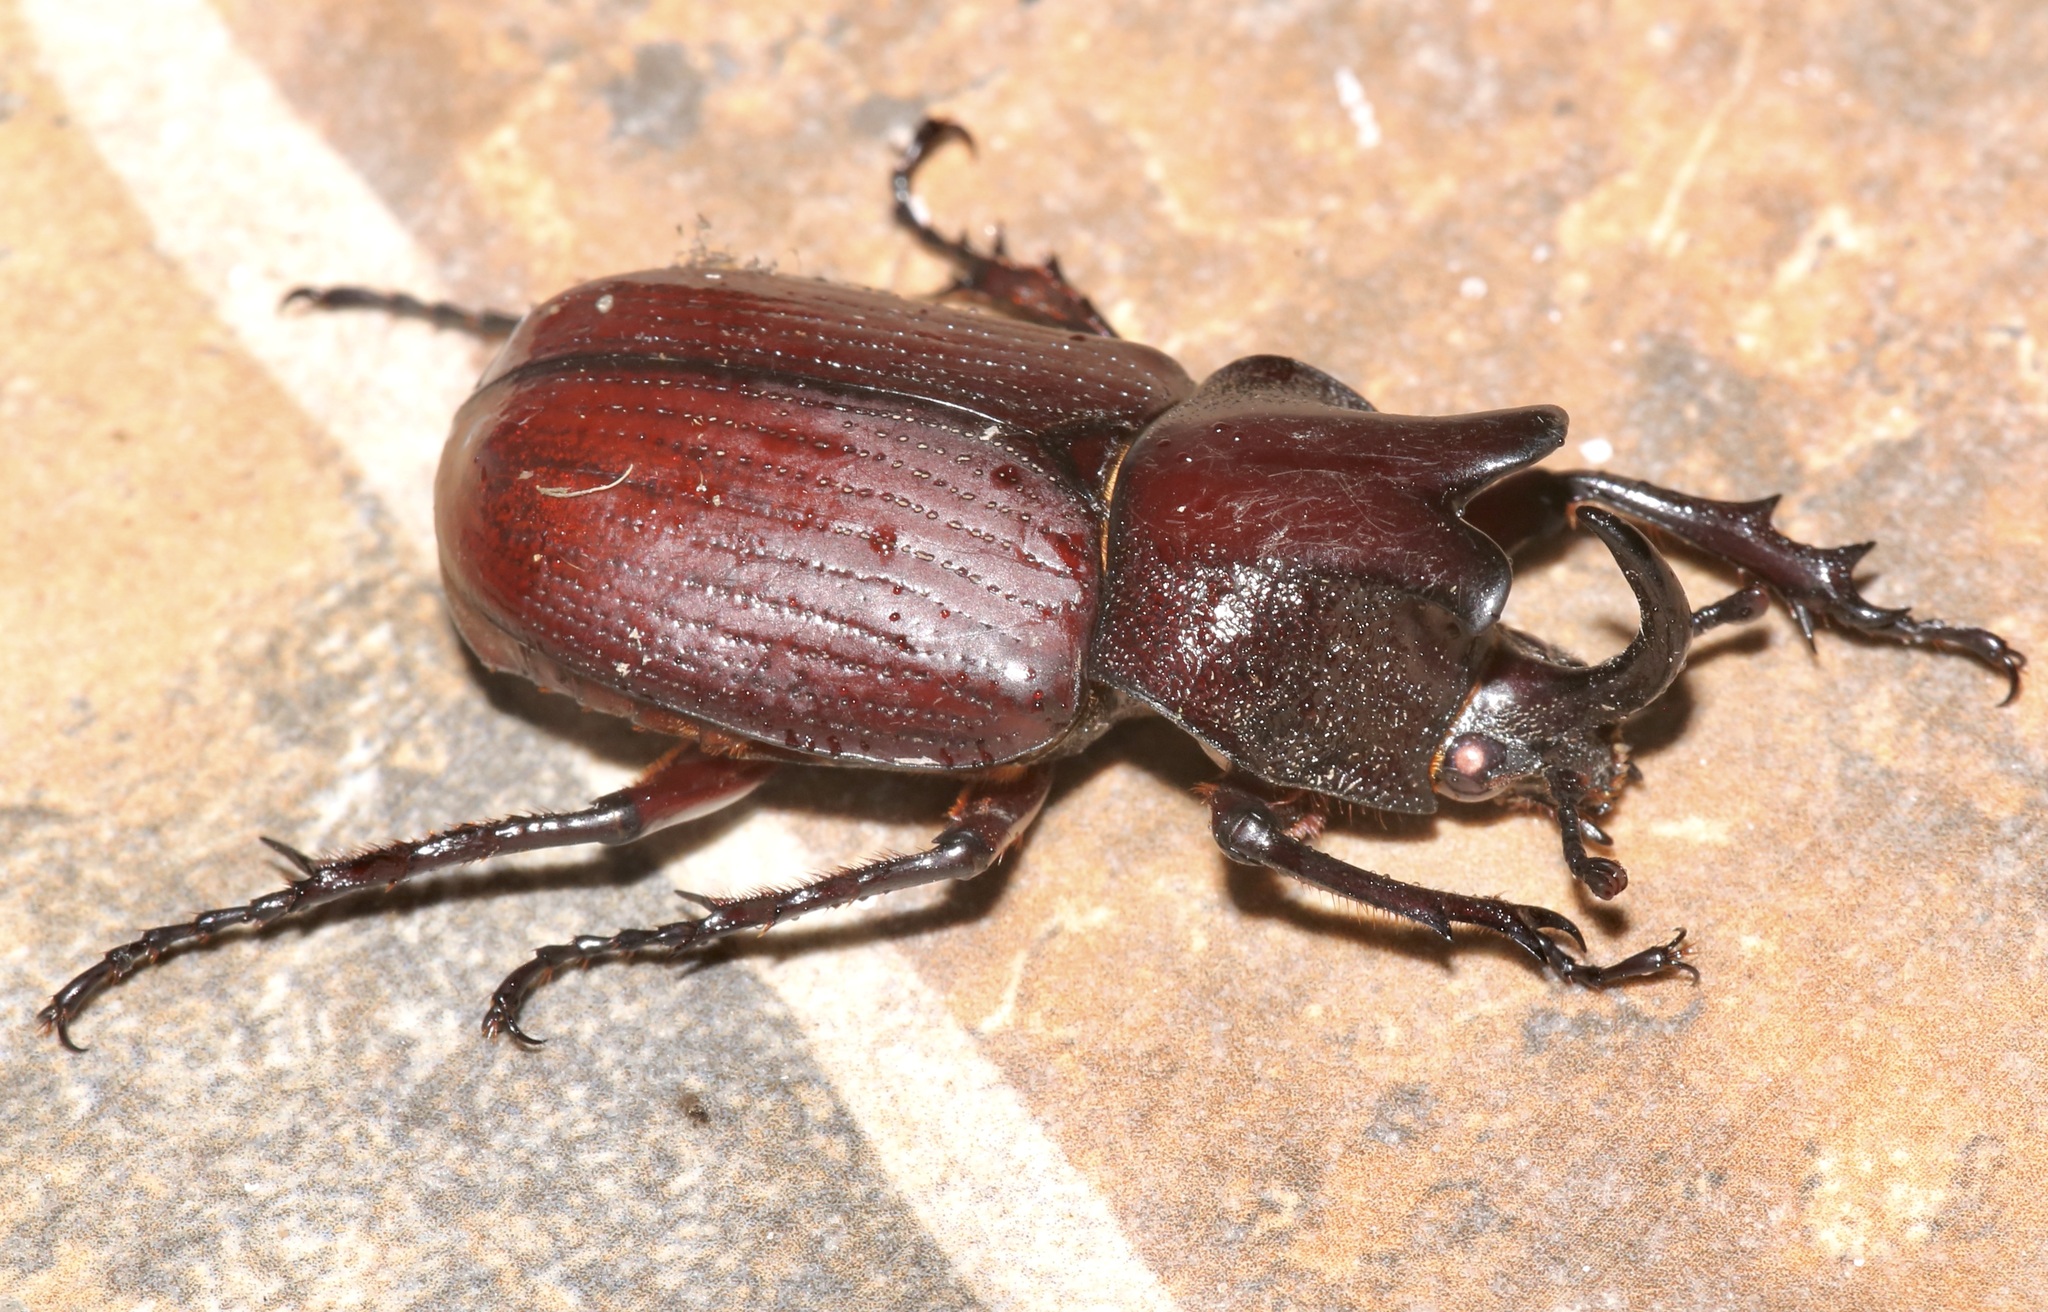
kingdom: Animalia
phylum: Arthropoda
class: Insecta
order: Coleoptera
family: Scarabaeidae
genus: Coelosis
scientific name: Coelosis biloba
